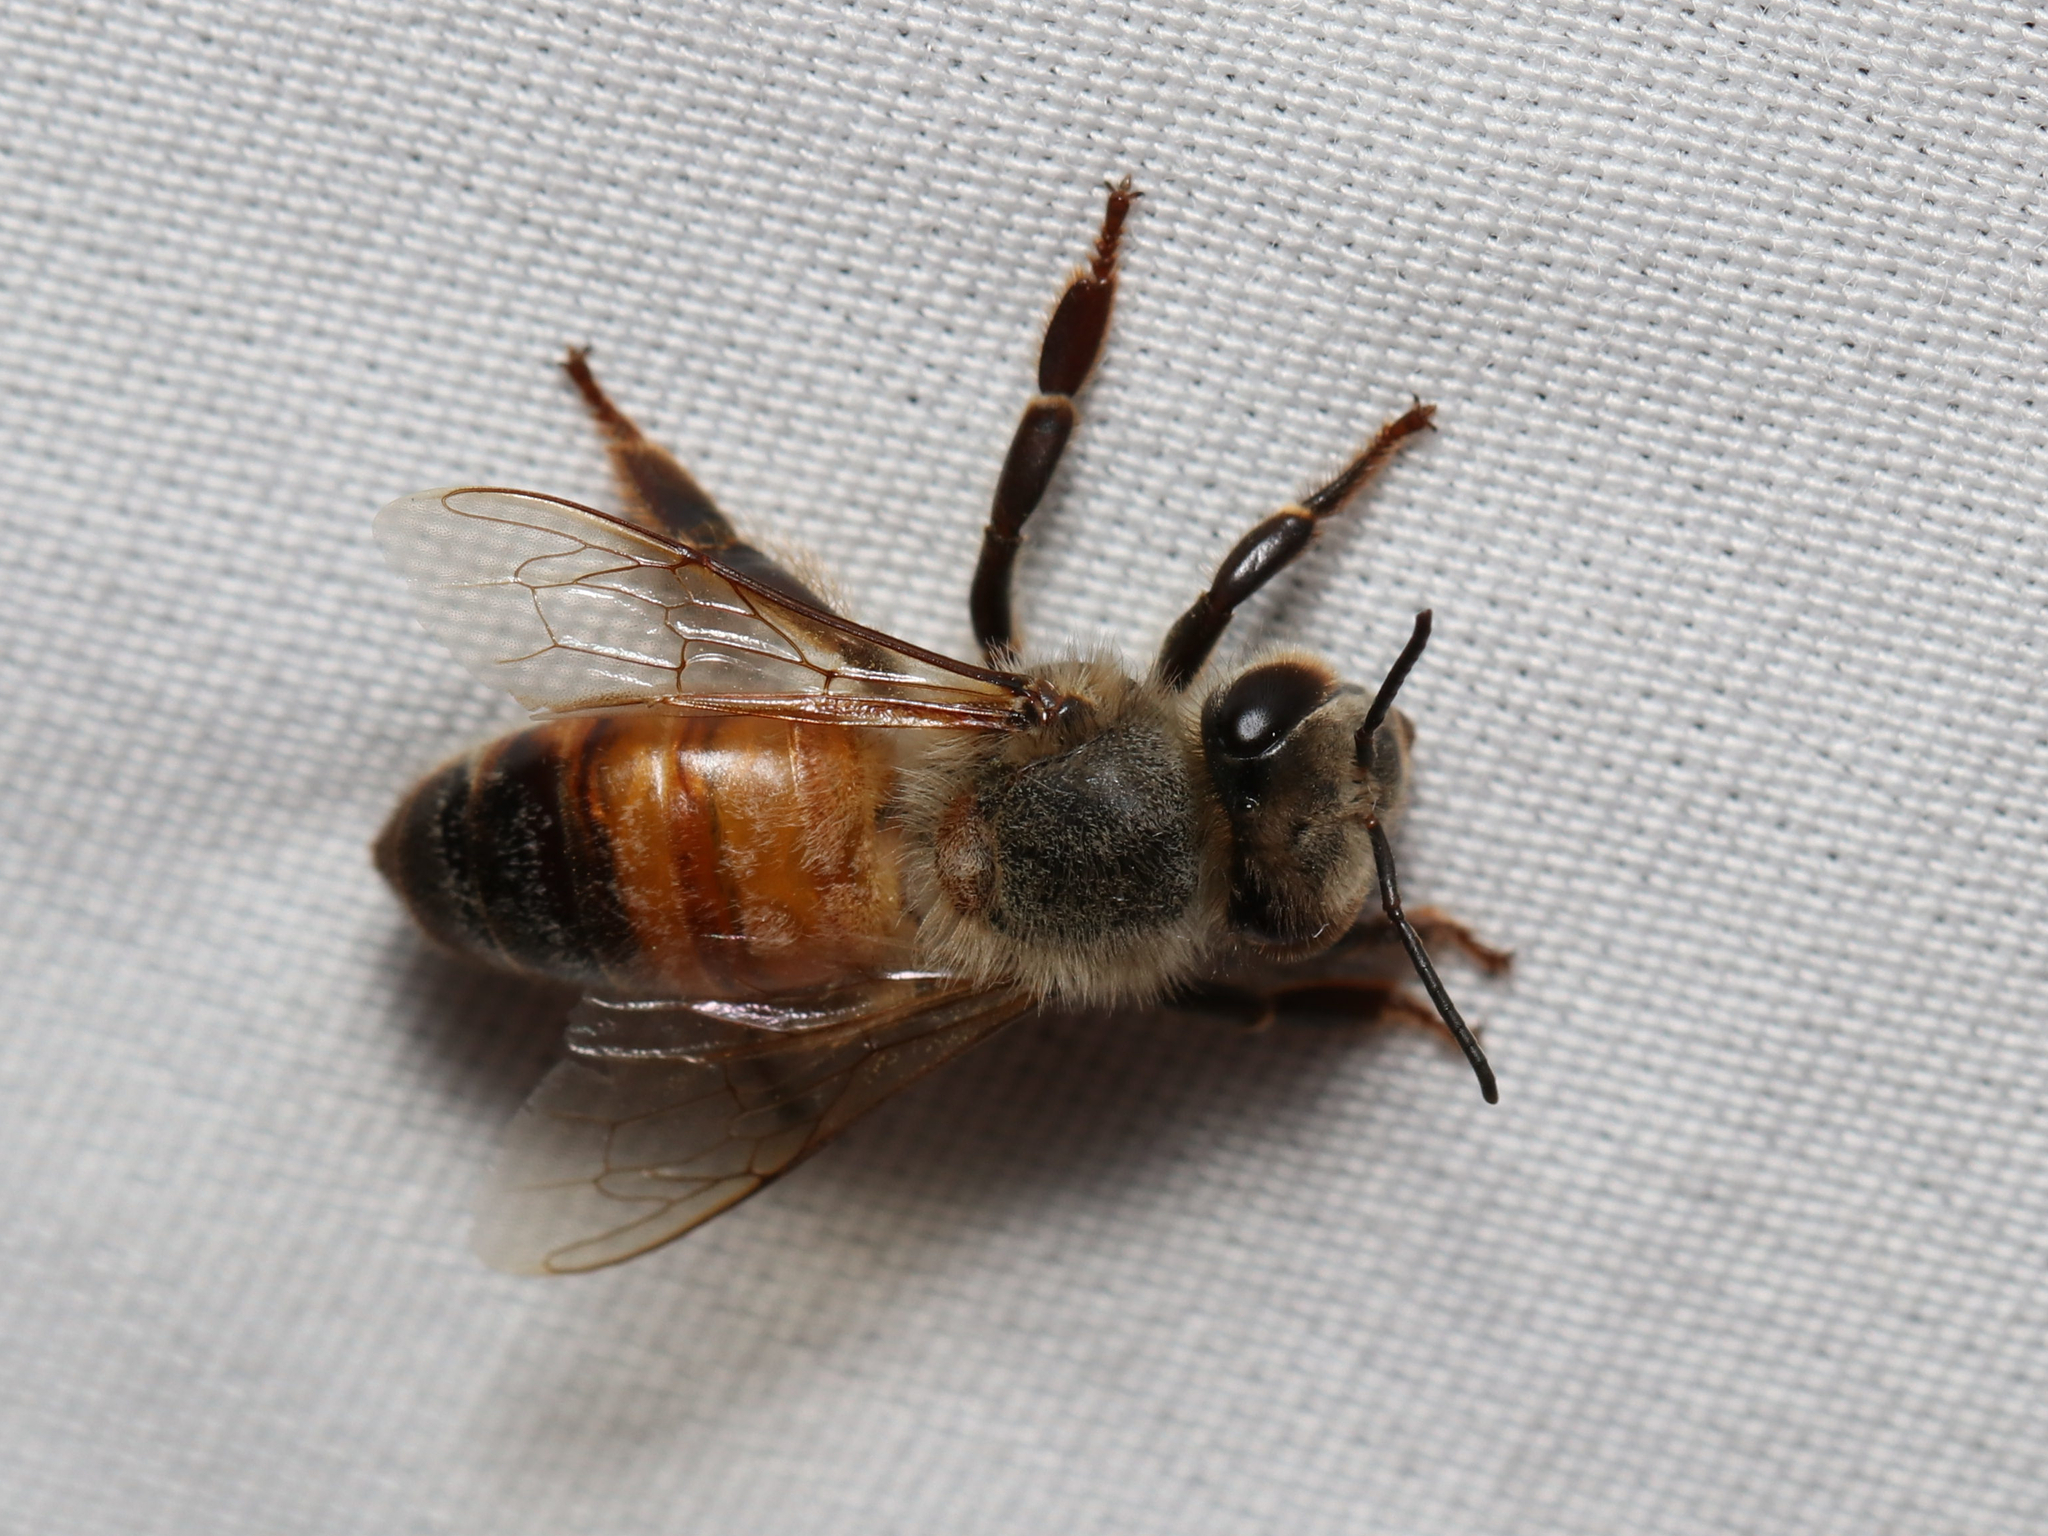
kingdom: Animalia
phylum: Arthropoda
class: Insecta
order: Hymenoptera
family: Apidae
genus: Apis
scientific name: Apis mellifera
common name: Honey bee
